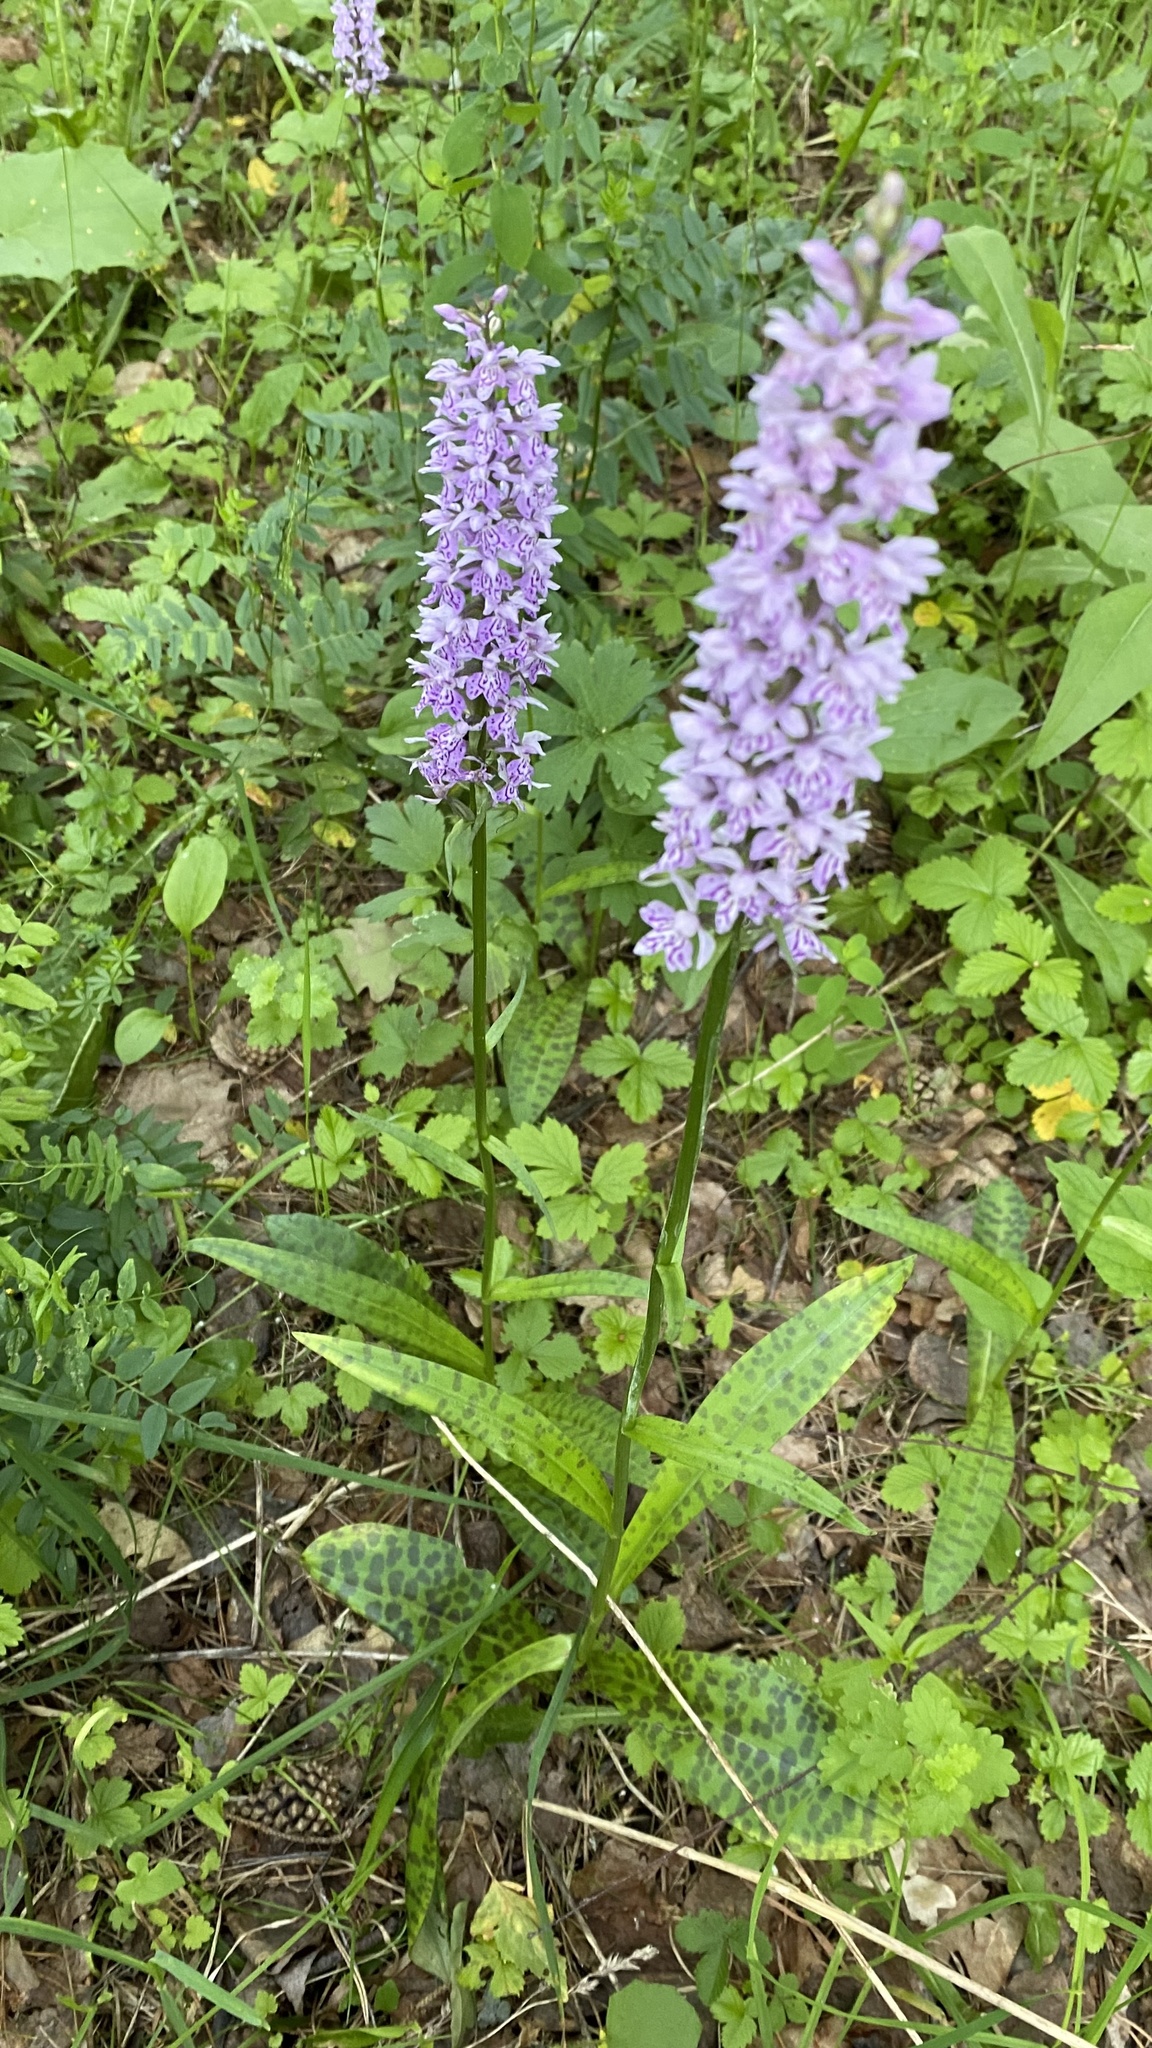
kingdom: Plantae
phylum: Tracheophyta
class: Liliopsida
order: Asparagales
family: Orchidaceae
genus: Dactylorhiza
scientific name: Dactylorhiza maculata
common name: Heath spotted-orchid
